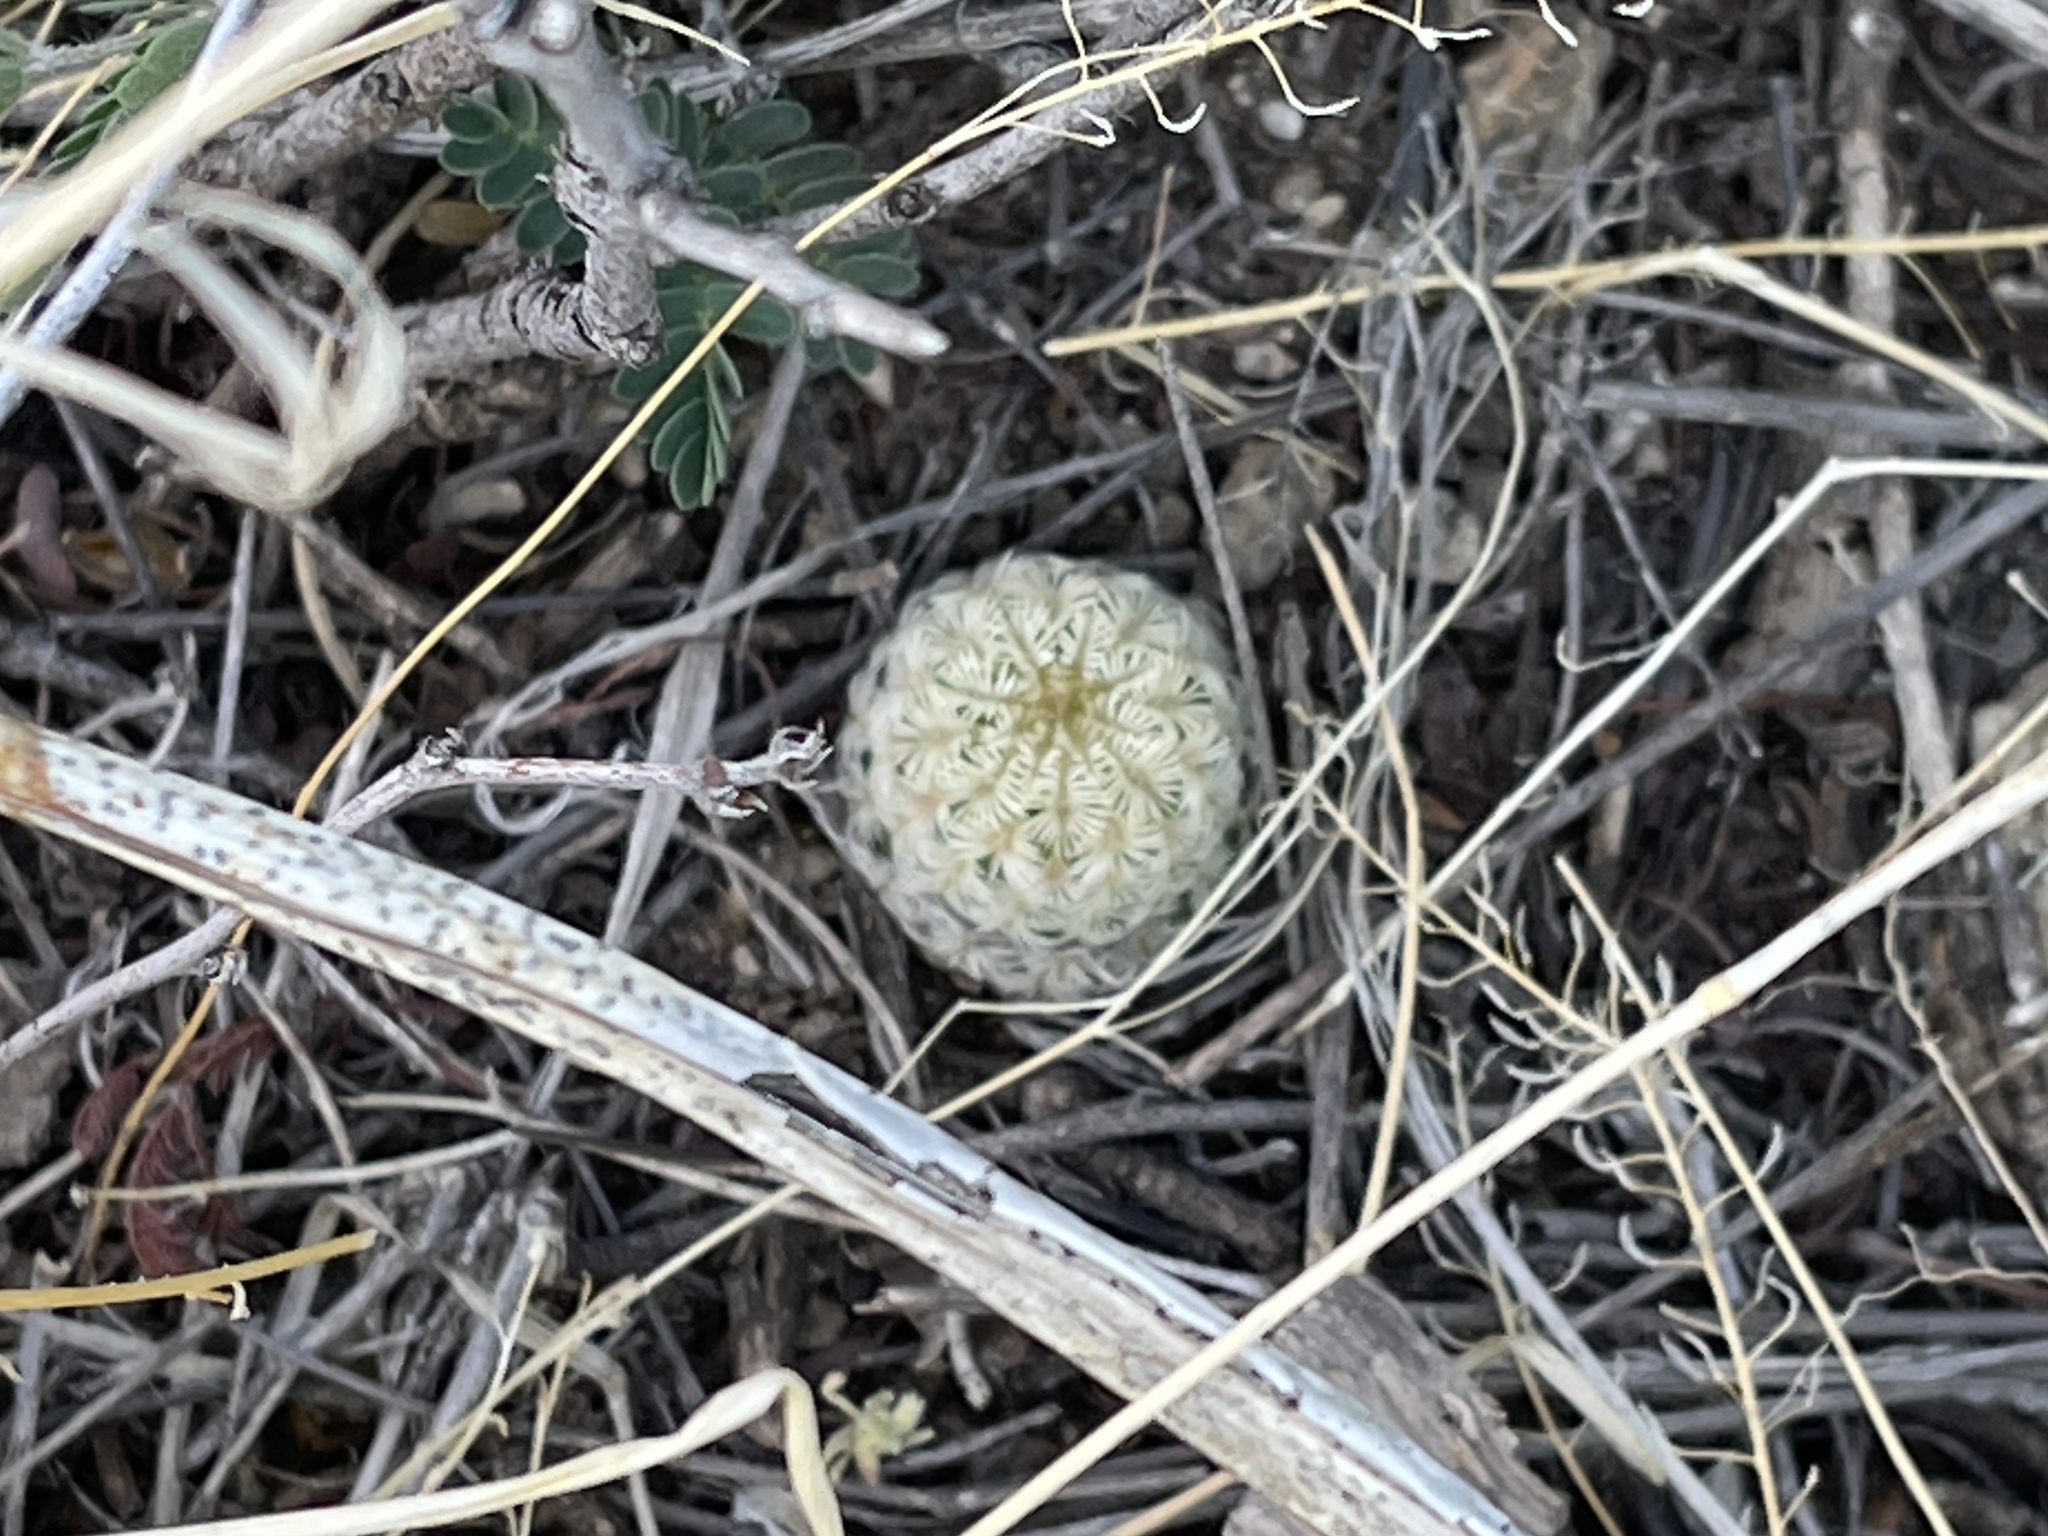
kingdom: Plantae
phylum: Tracheophyta
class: Magnoliopsida
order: Caryophyllales
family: Cactaceae
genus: Echinocereus
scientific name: Echinocereus rigidissimus
